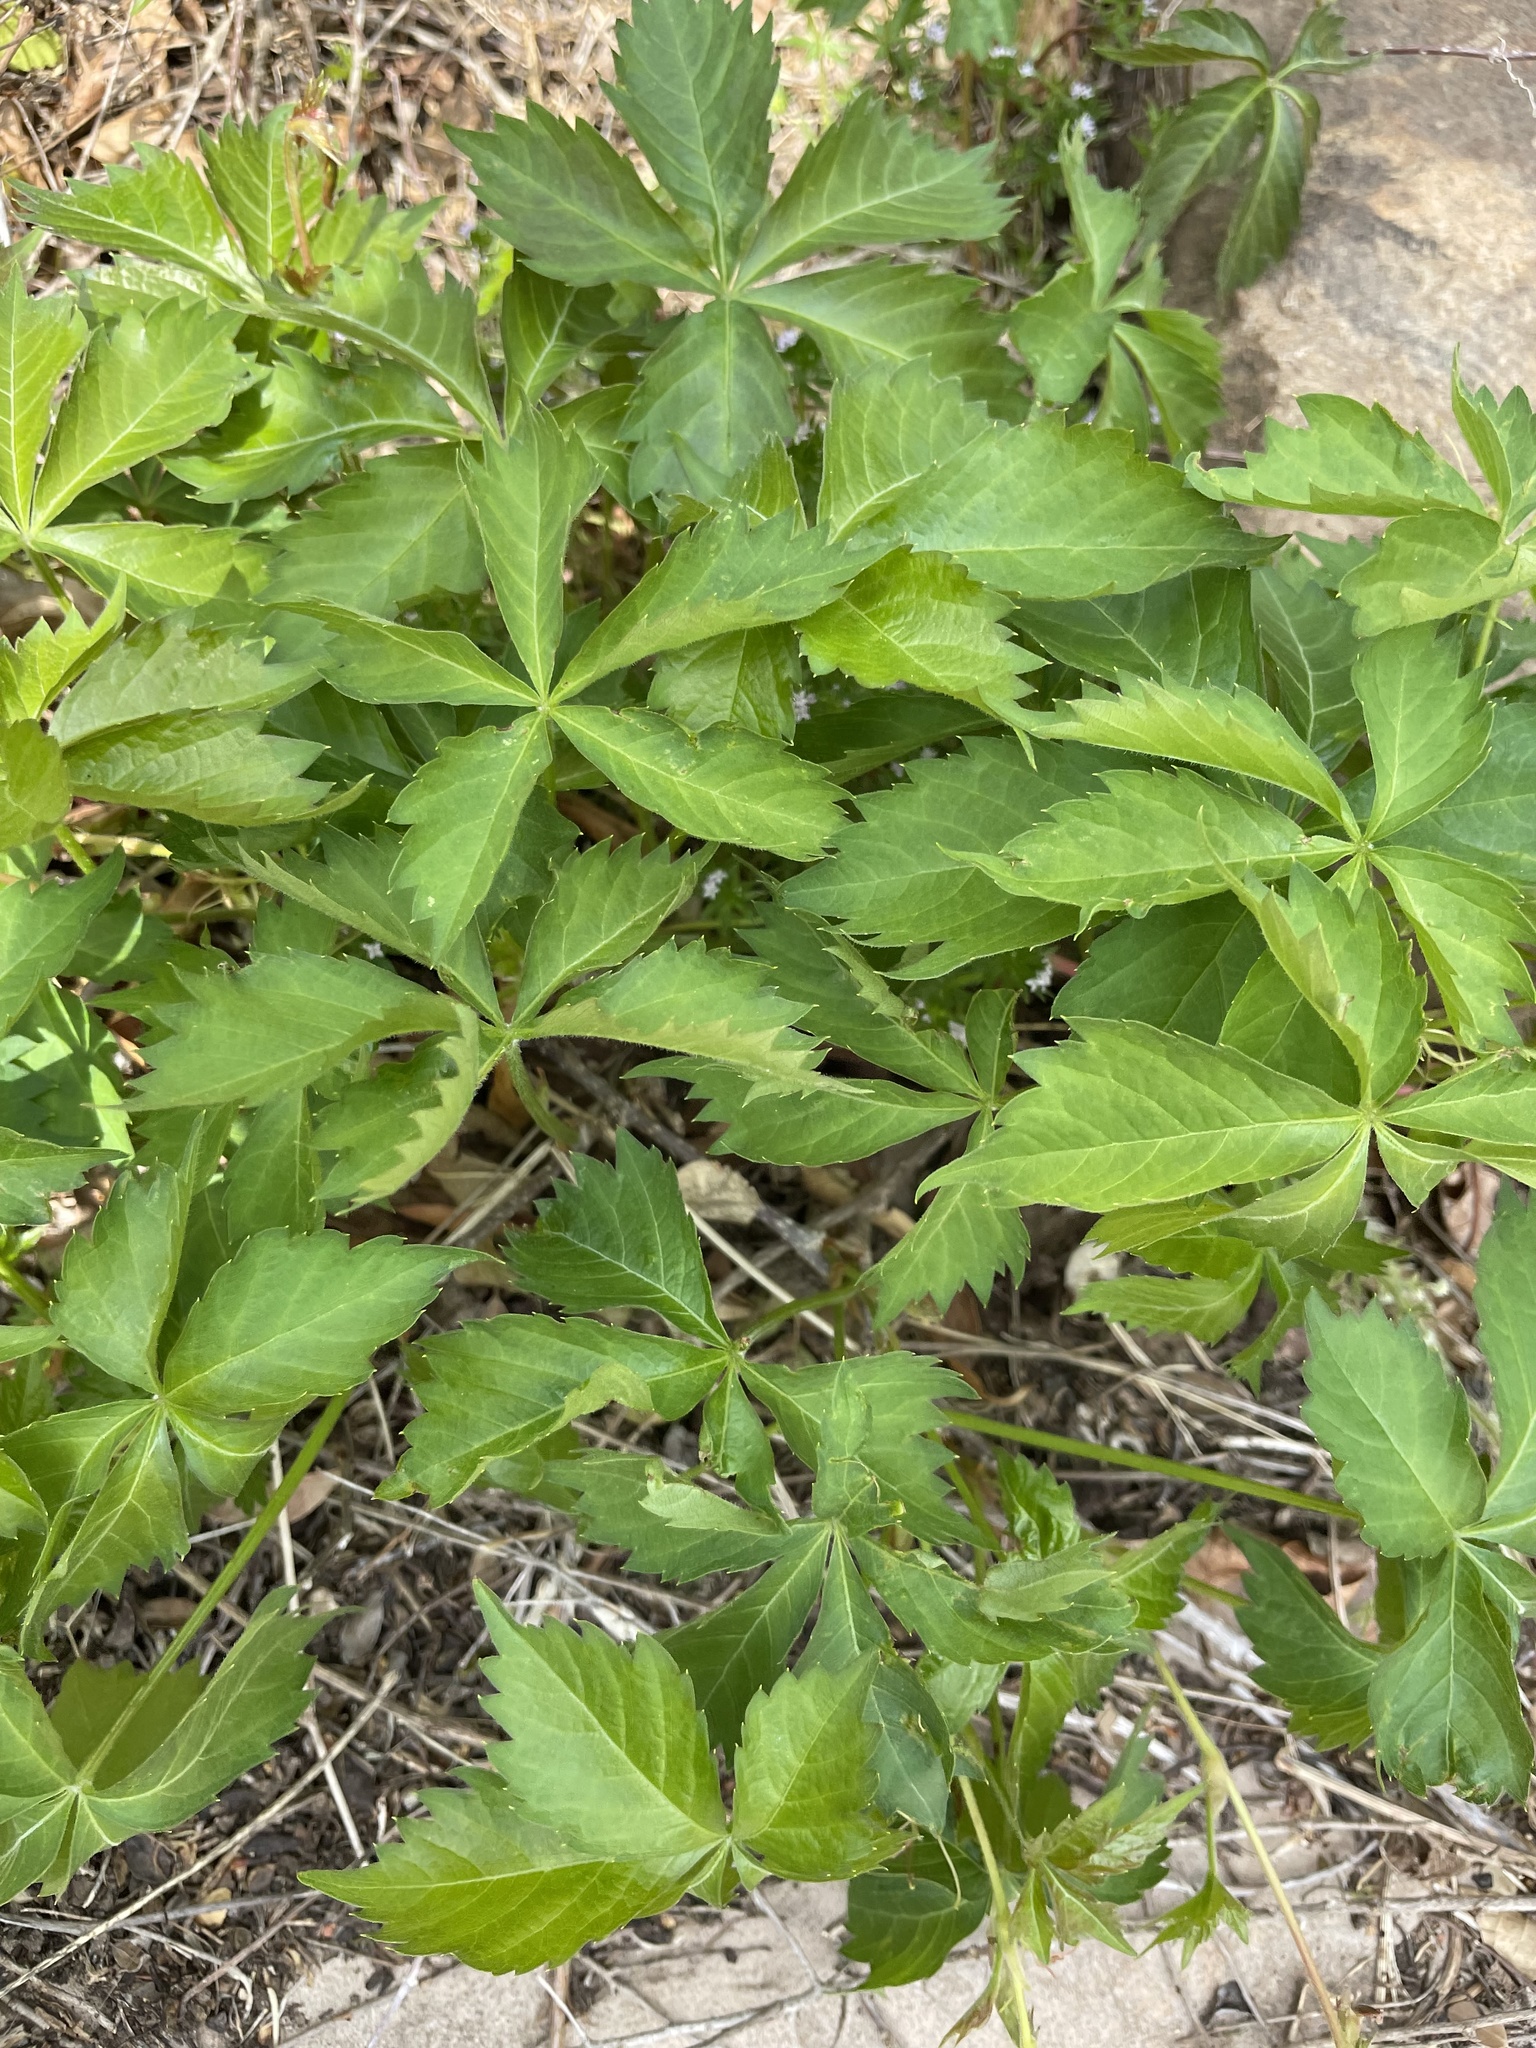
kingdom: Plantae
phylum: Tracheophyta
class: Magnoliopsida
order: Vitales
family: Vitaceae
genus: Parthenocissus
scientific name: Parthenocissus quinquefolia
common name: Virginia-creeper
